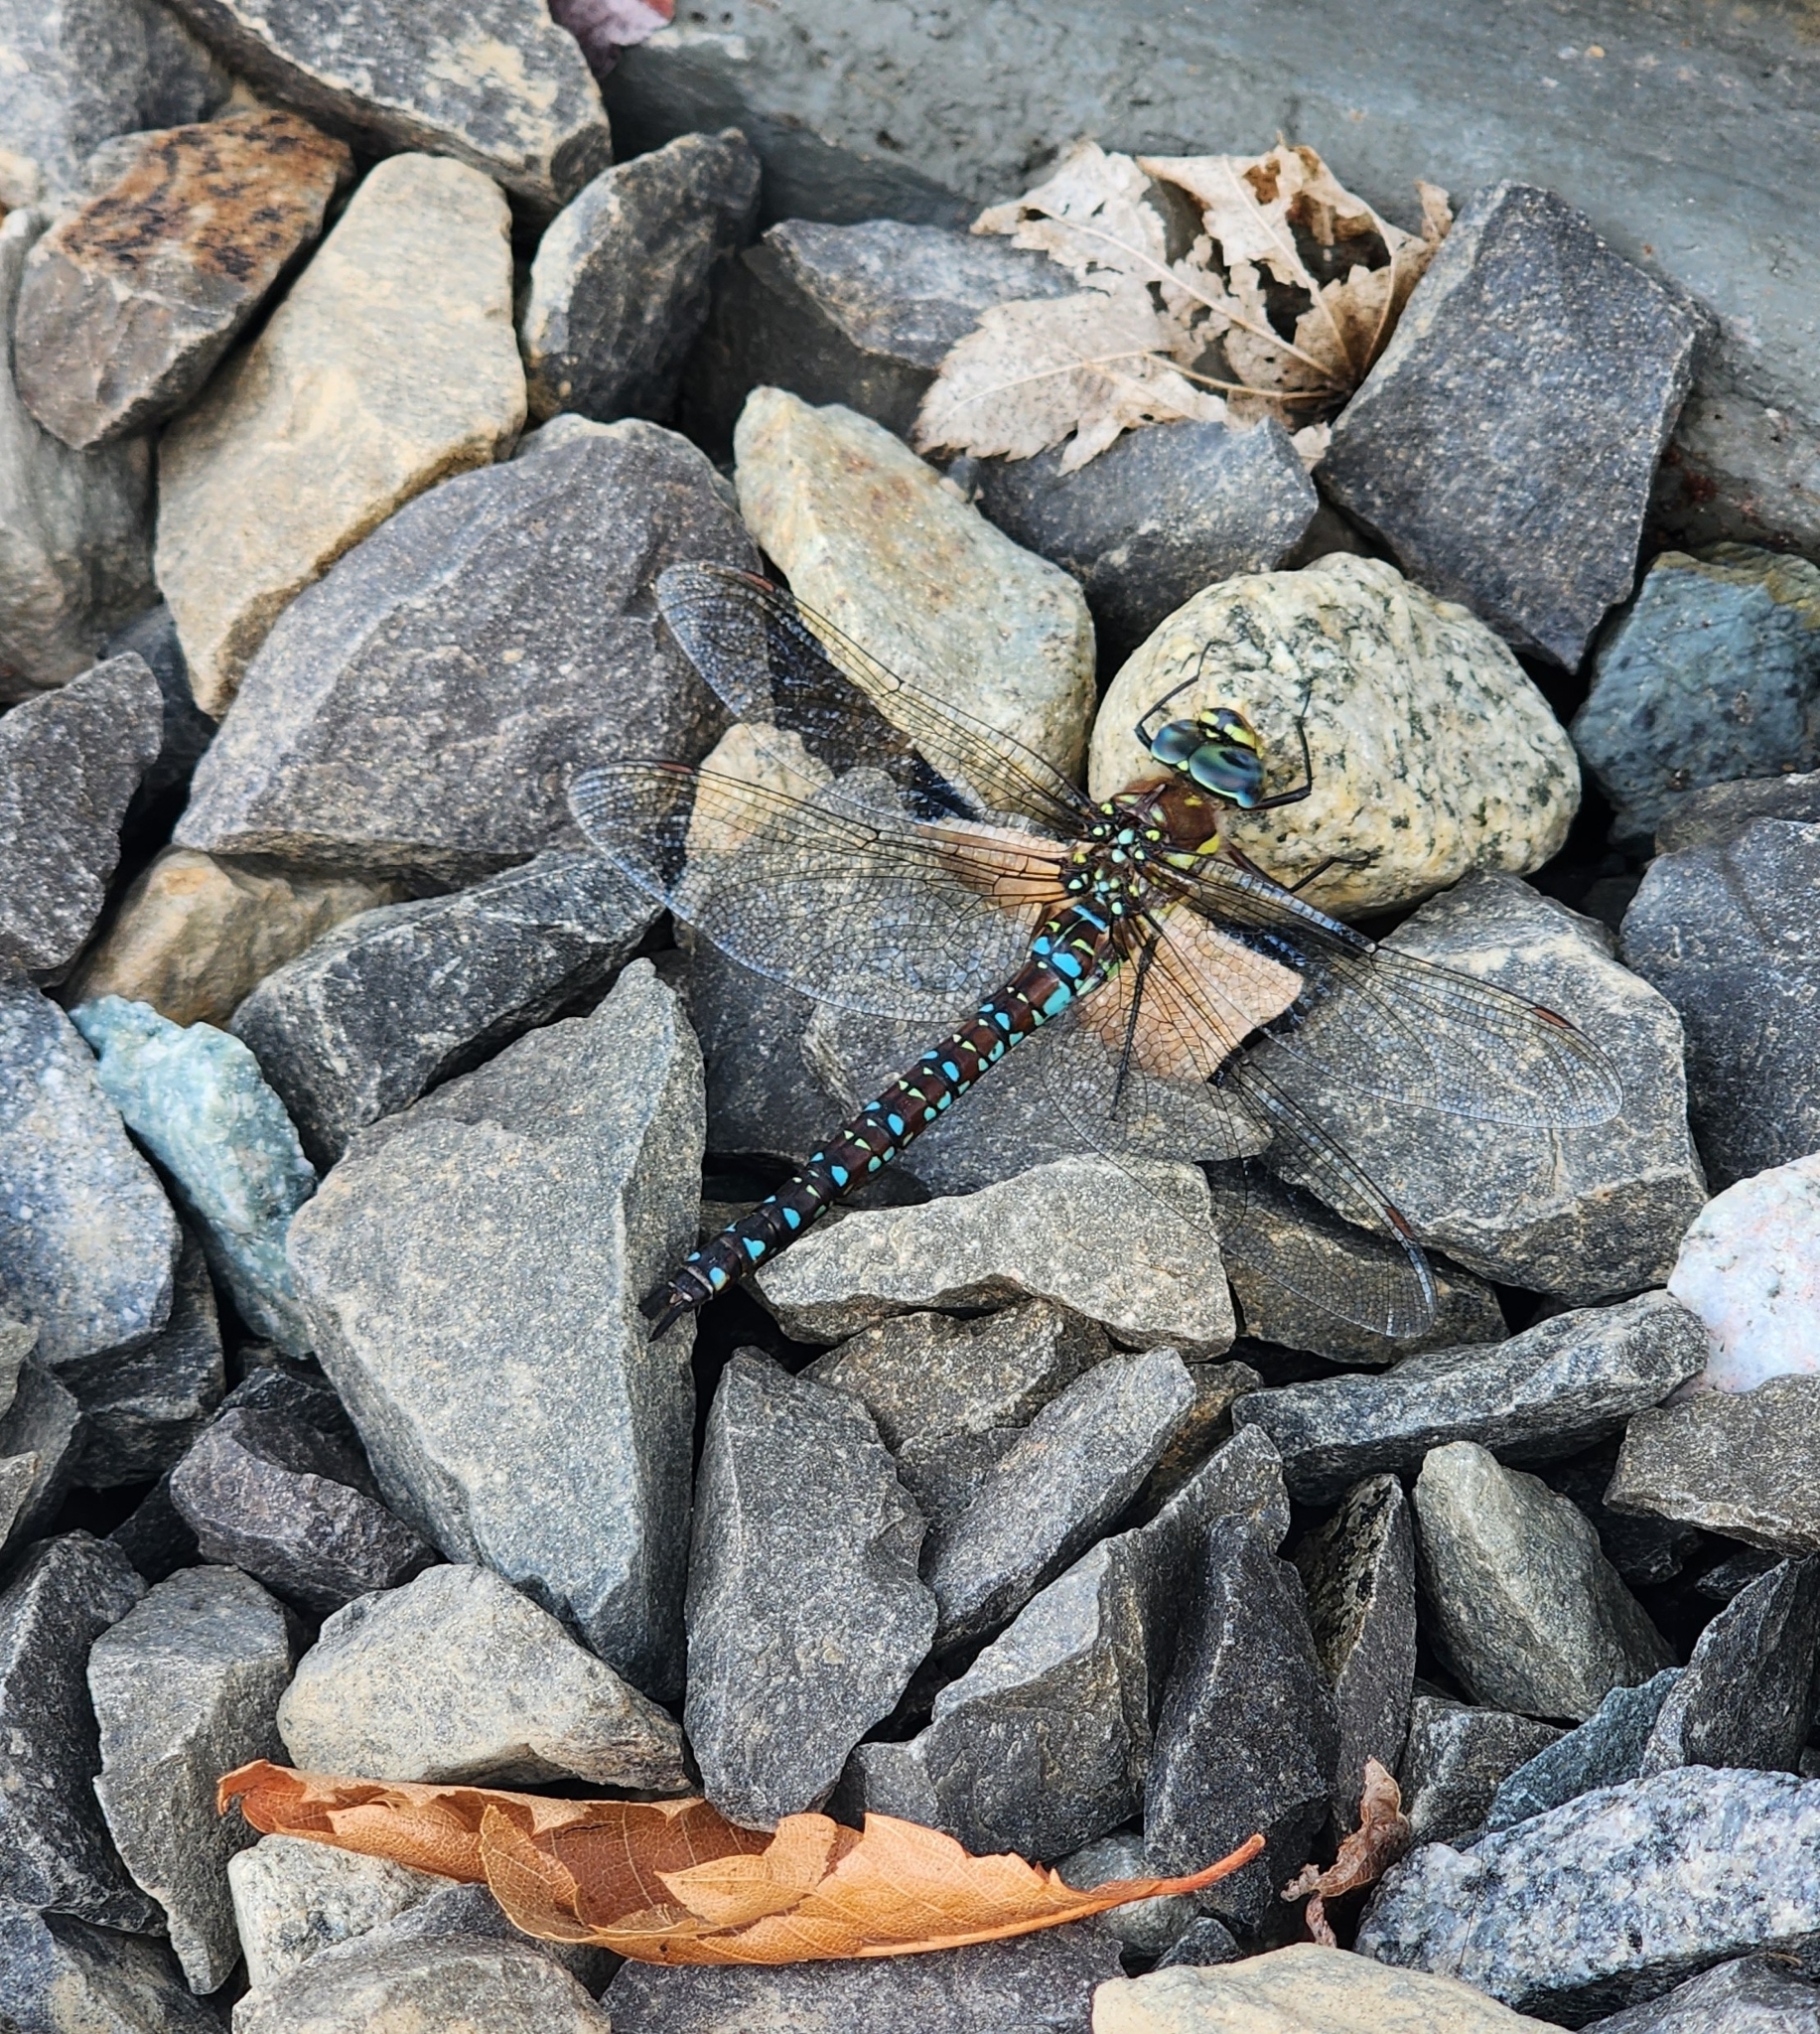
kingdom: Animalia
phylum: Arthropoda
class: Insecta
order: Odonata
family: Aeshnidae
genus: Aeshna
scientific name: Aeshna palmata
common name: Paddle-tailed darner
